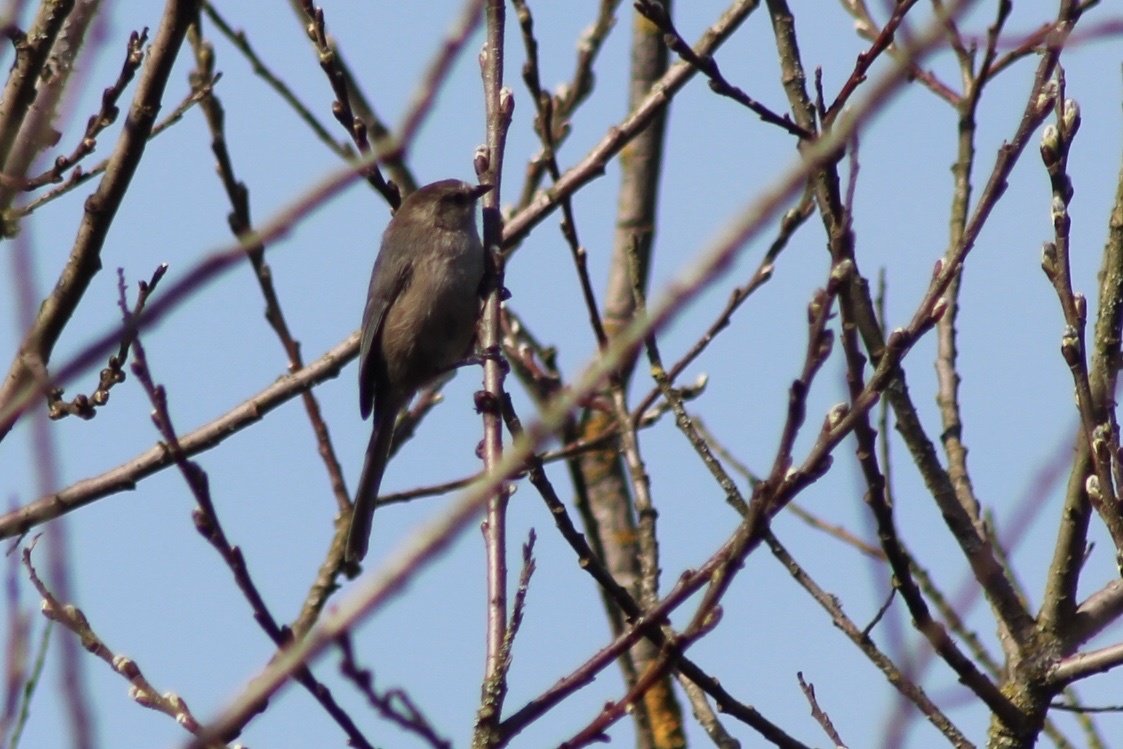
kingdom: Animalia
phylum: Chordata
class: Aves
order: Passeriformes
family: Aegithalidae
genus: Psaltriparus
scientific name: Psaltriparus minimus
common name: American bushtit
